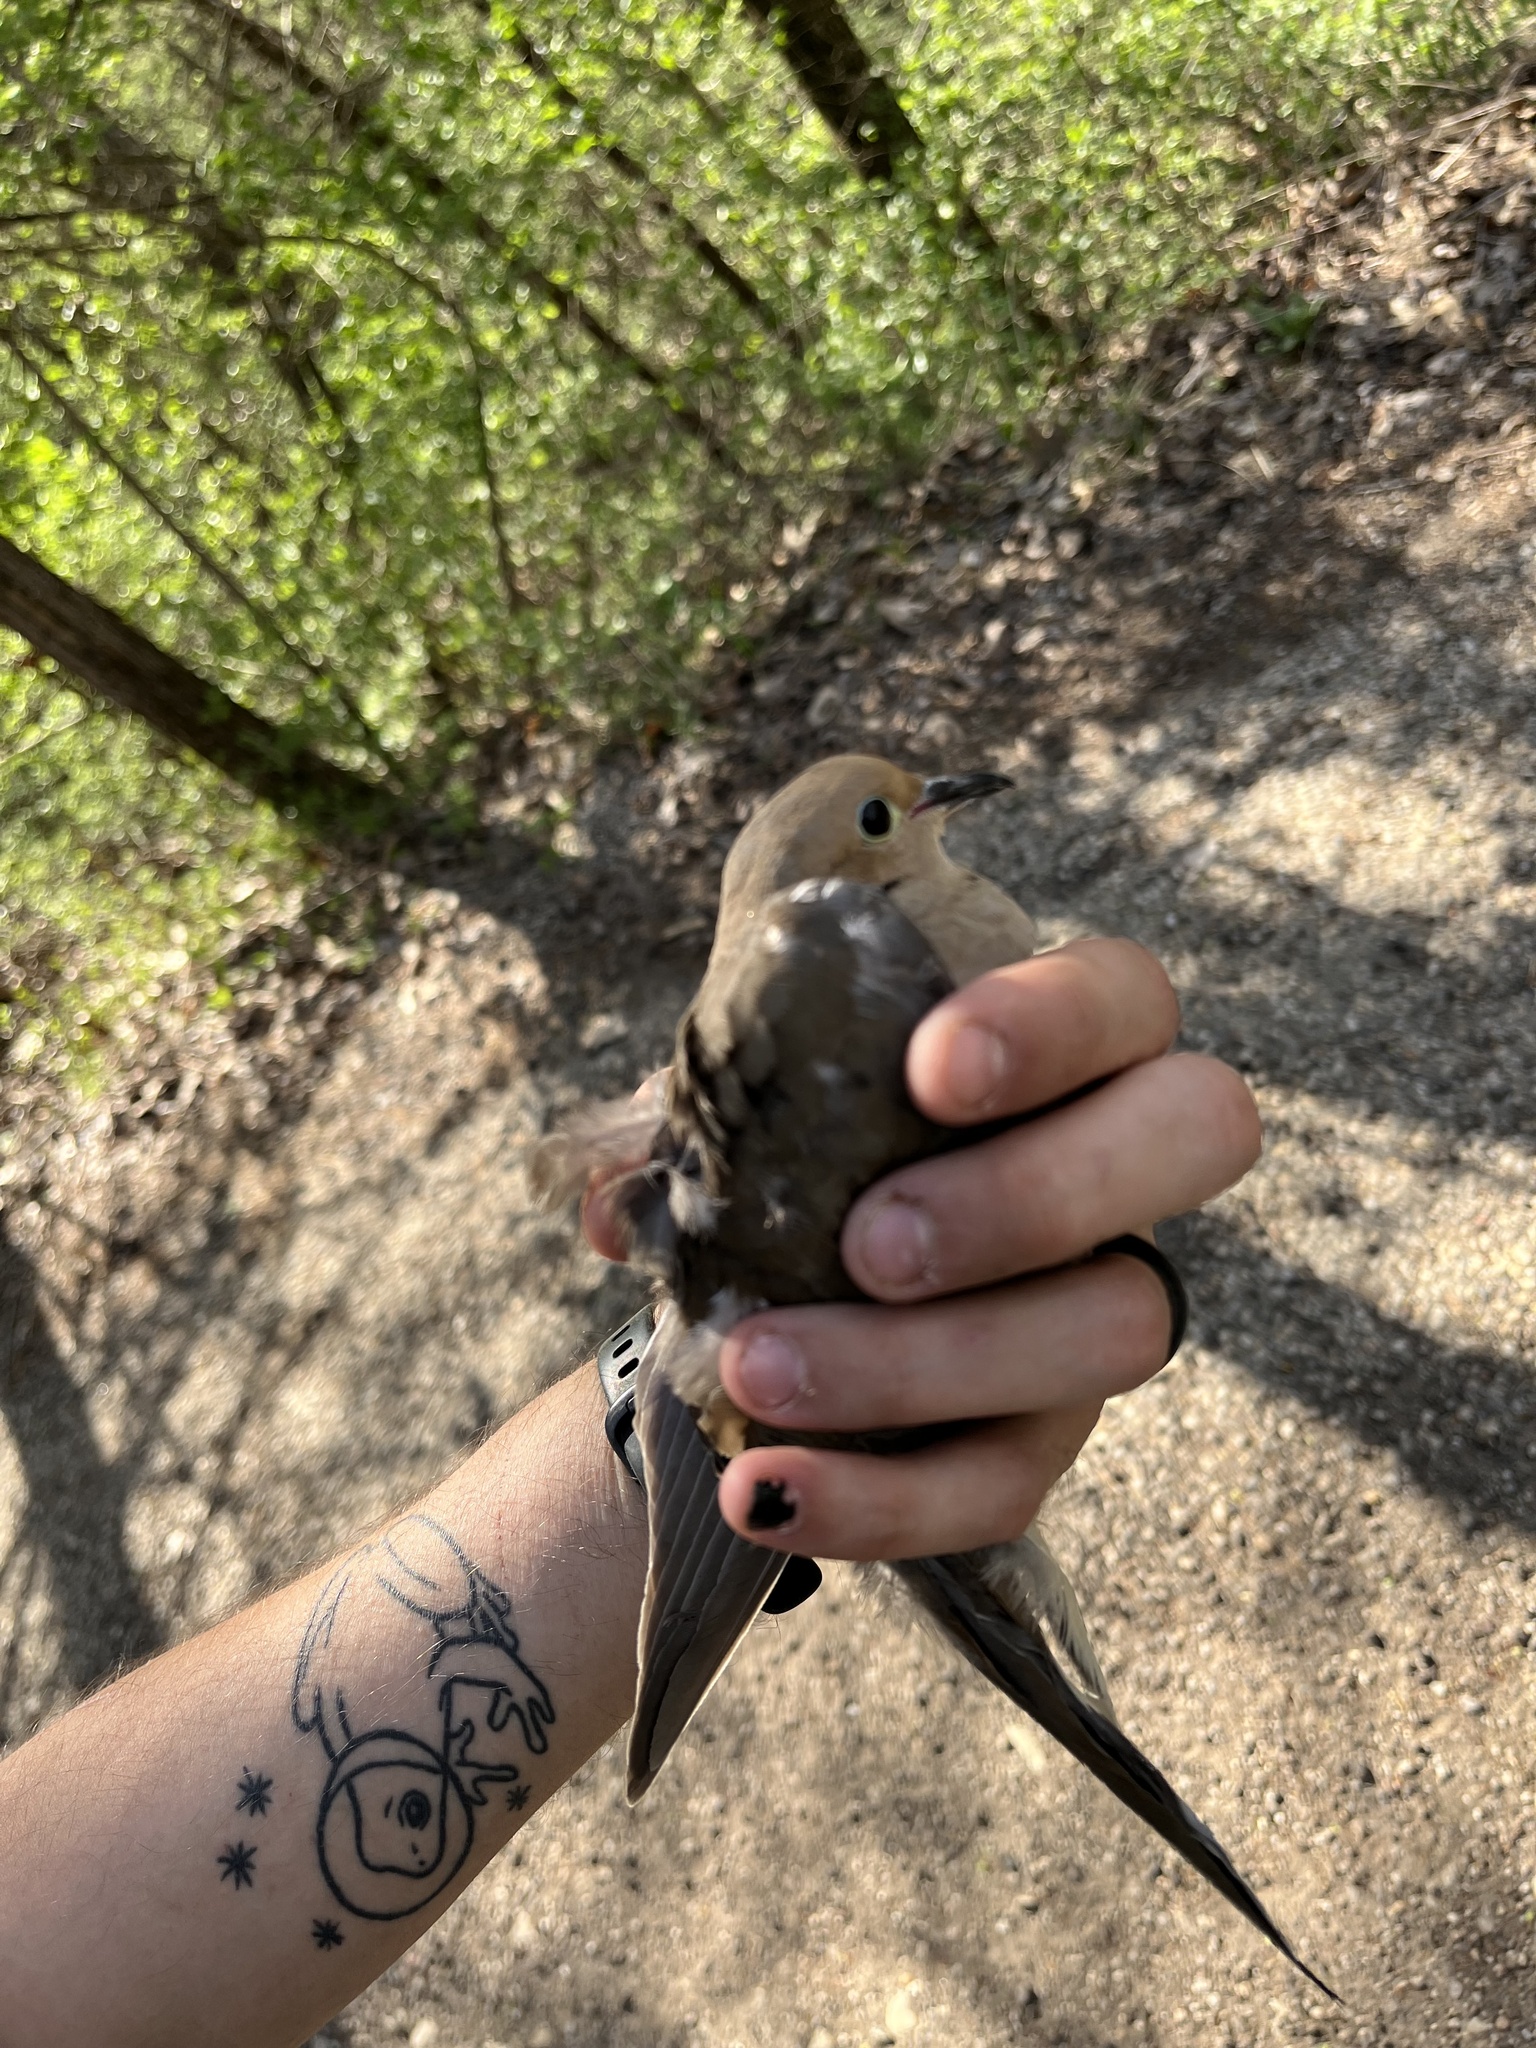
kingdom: Animalia
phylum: Chordata
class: Aves
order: Columbiformes
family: Columbidae
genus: Zenaida
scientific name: Zenaida macroura
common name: Mourning dove
